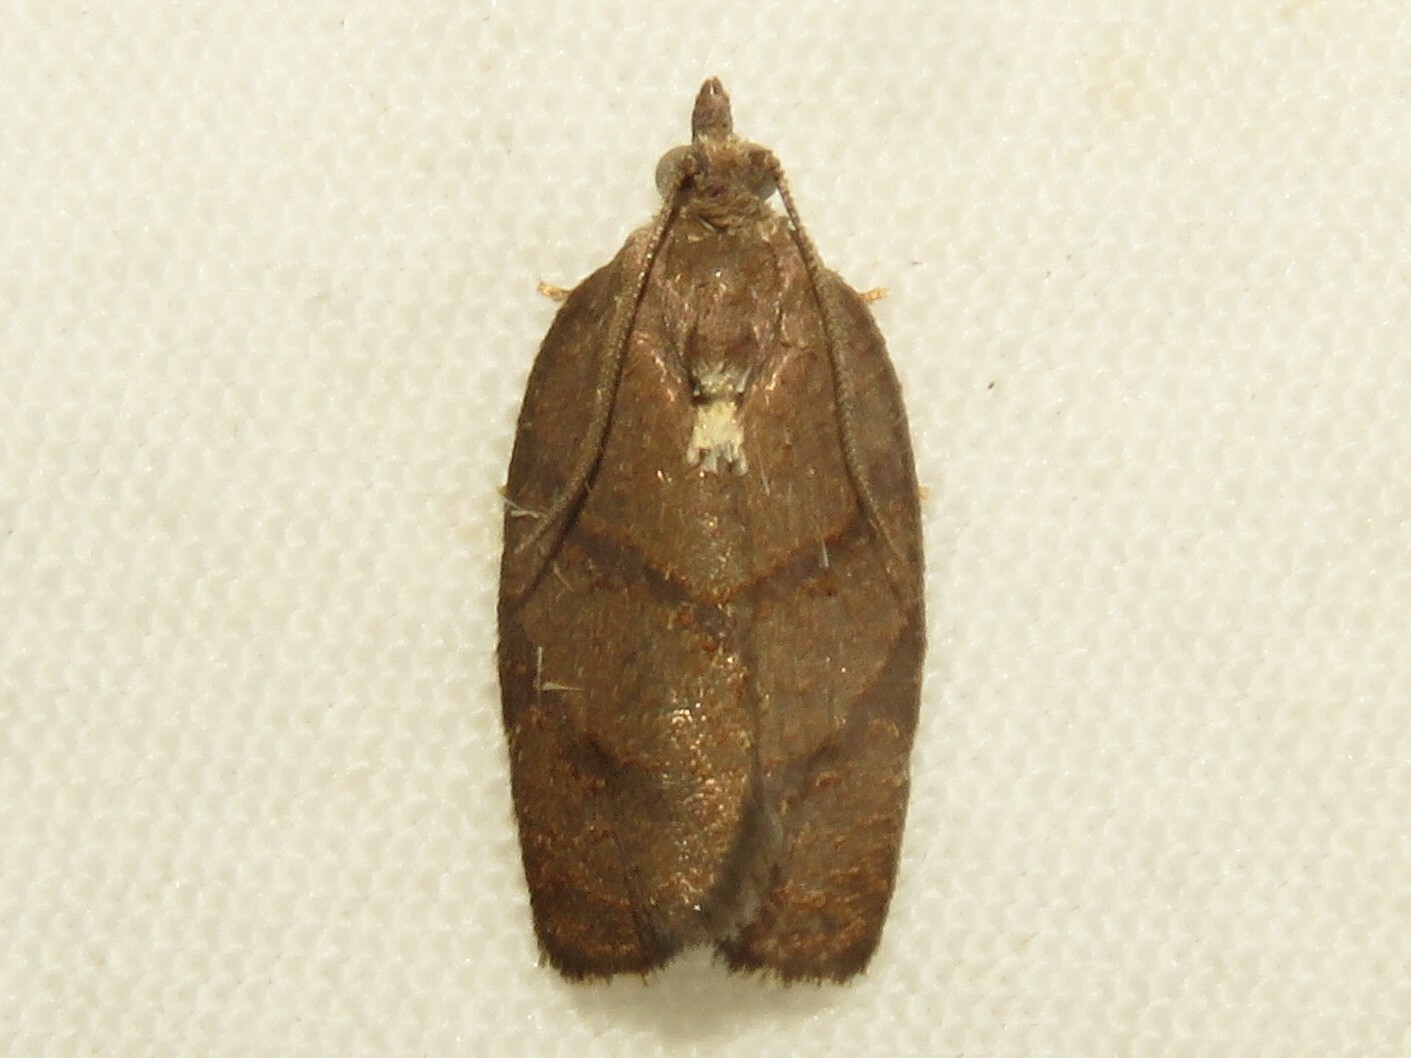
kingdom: Animalia
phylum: Arthropoda
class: Insecta
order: Lepidoptera
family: Tortricidae
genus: Argyrotaenia
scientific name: Argyrotaenia juglandana
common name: Hickory leafroller moth
